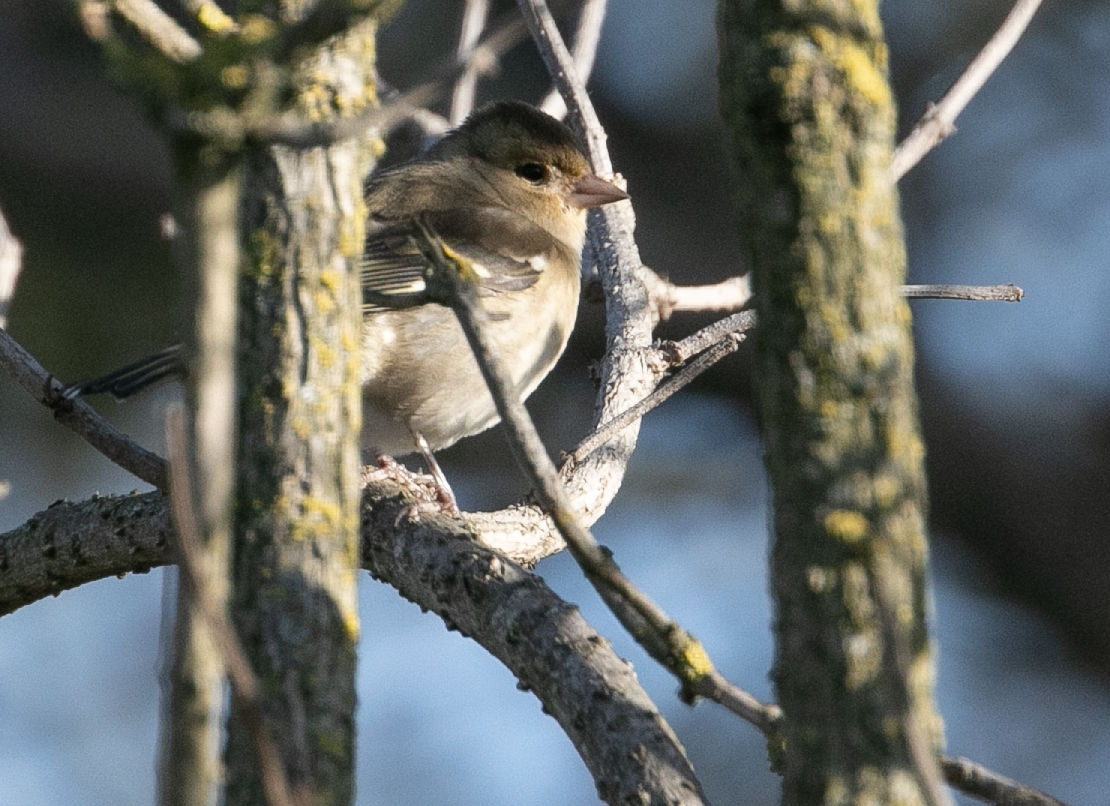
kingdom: Animalia
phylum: Chordata
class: Aves
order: Passeriformes
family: Fringillidae
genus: Fringilla
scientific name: Fringilla coelebs
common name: Common chaffinch
